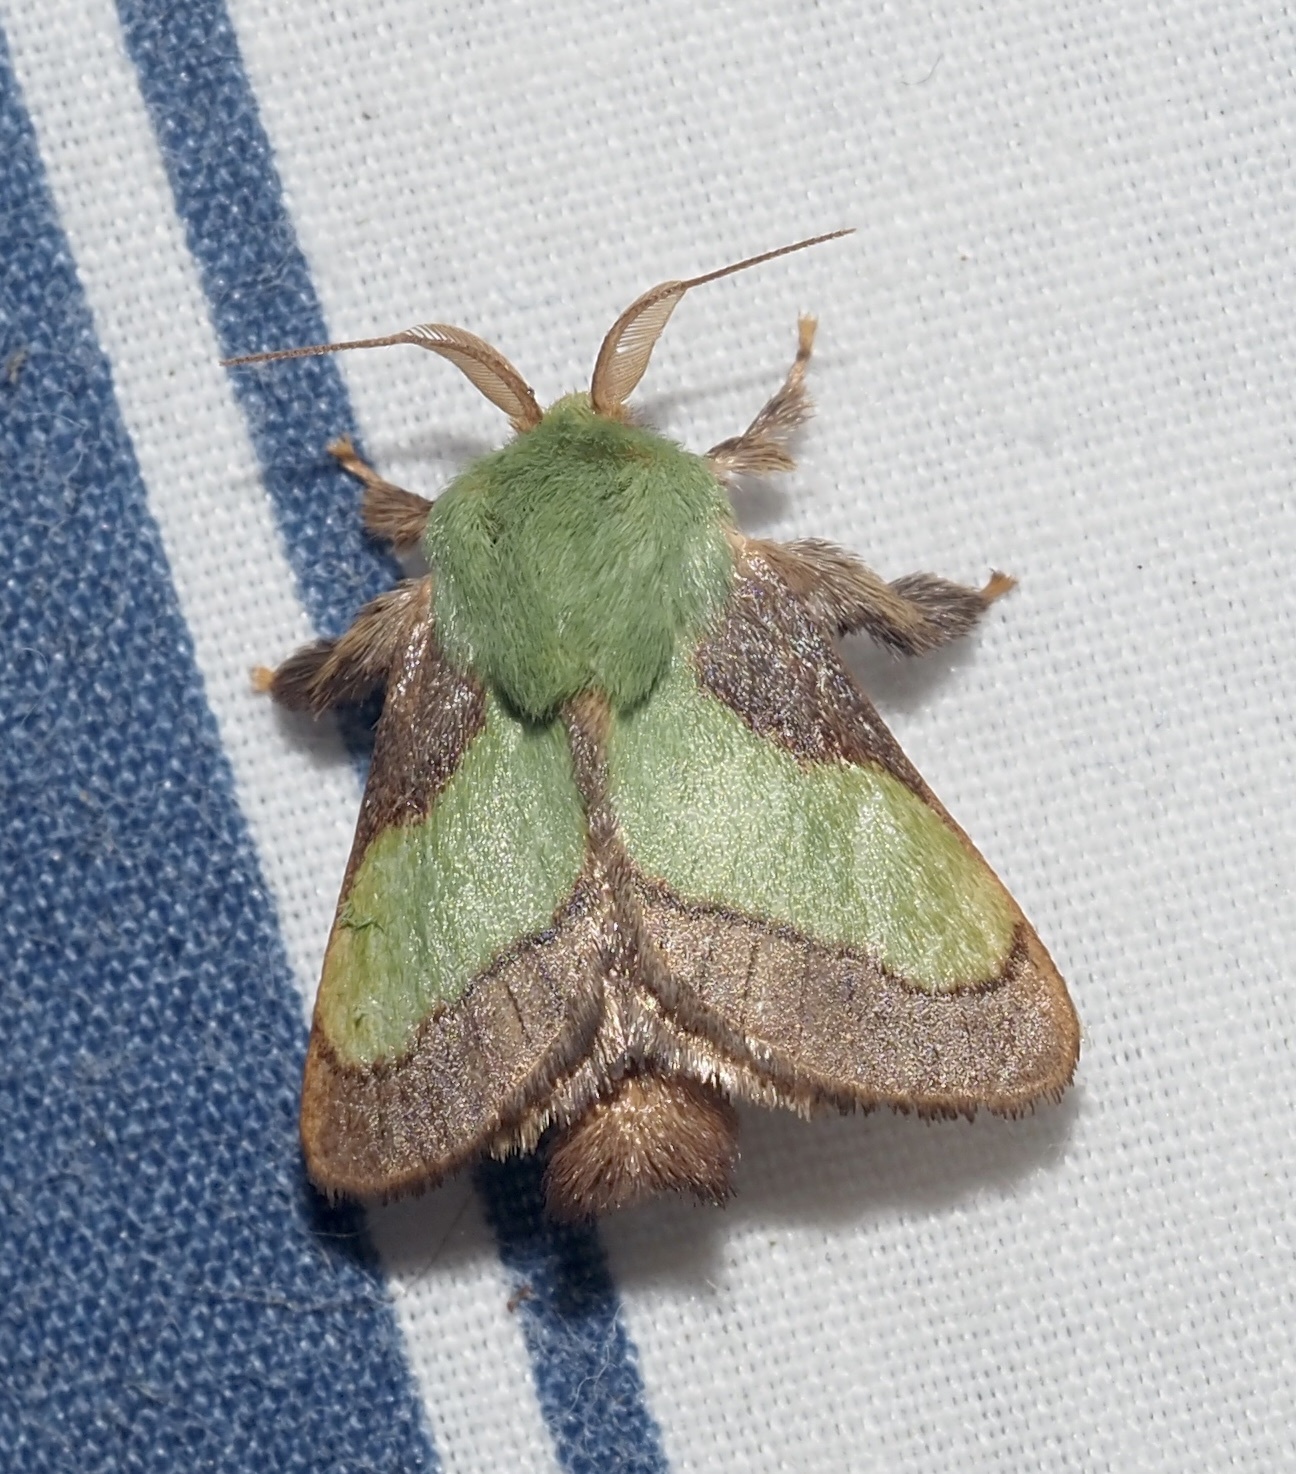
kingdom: Animalia
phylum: Arthropoda
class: Insecta
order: Lepidoptera
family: Limacodidae
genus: Parasa
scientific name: Parasa chloris
